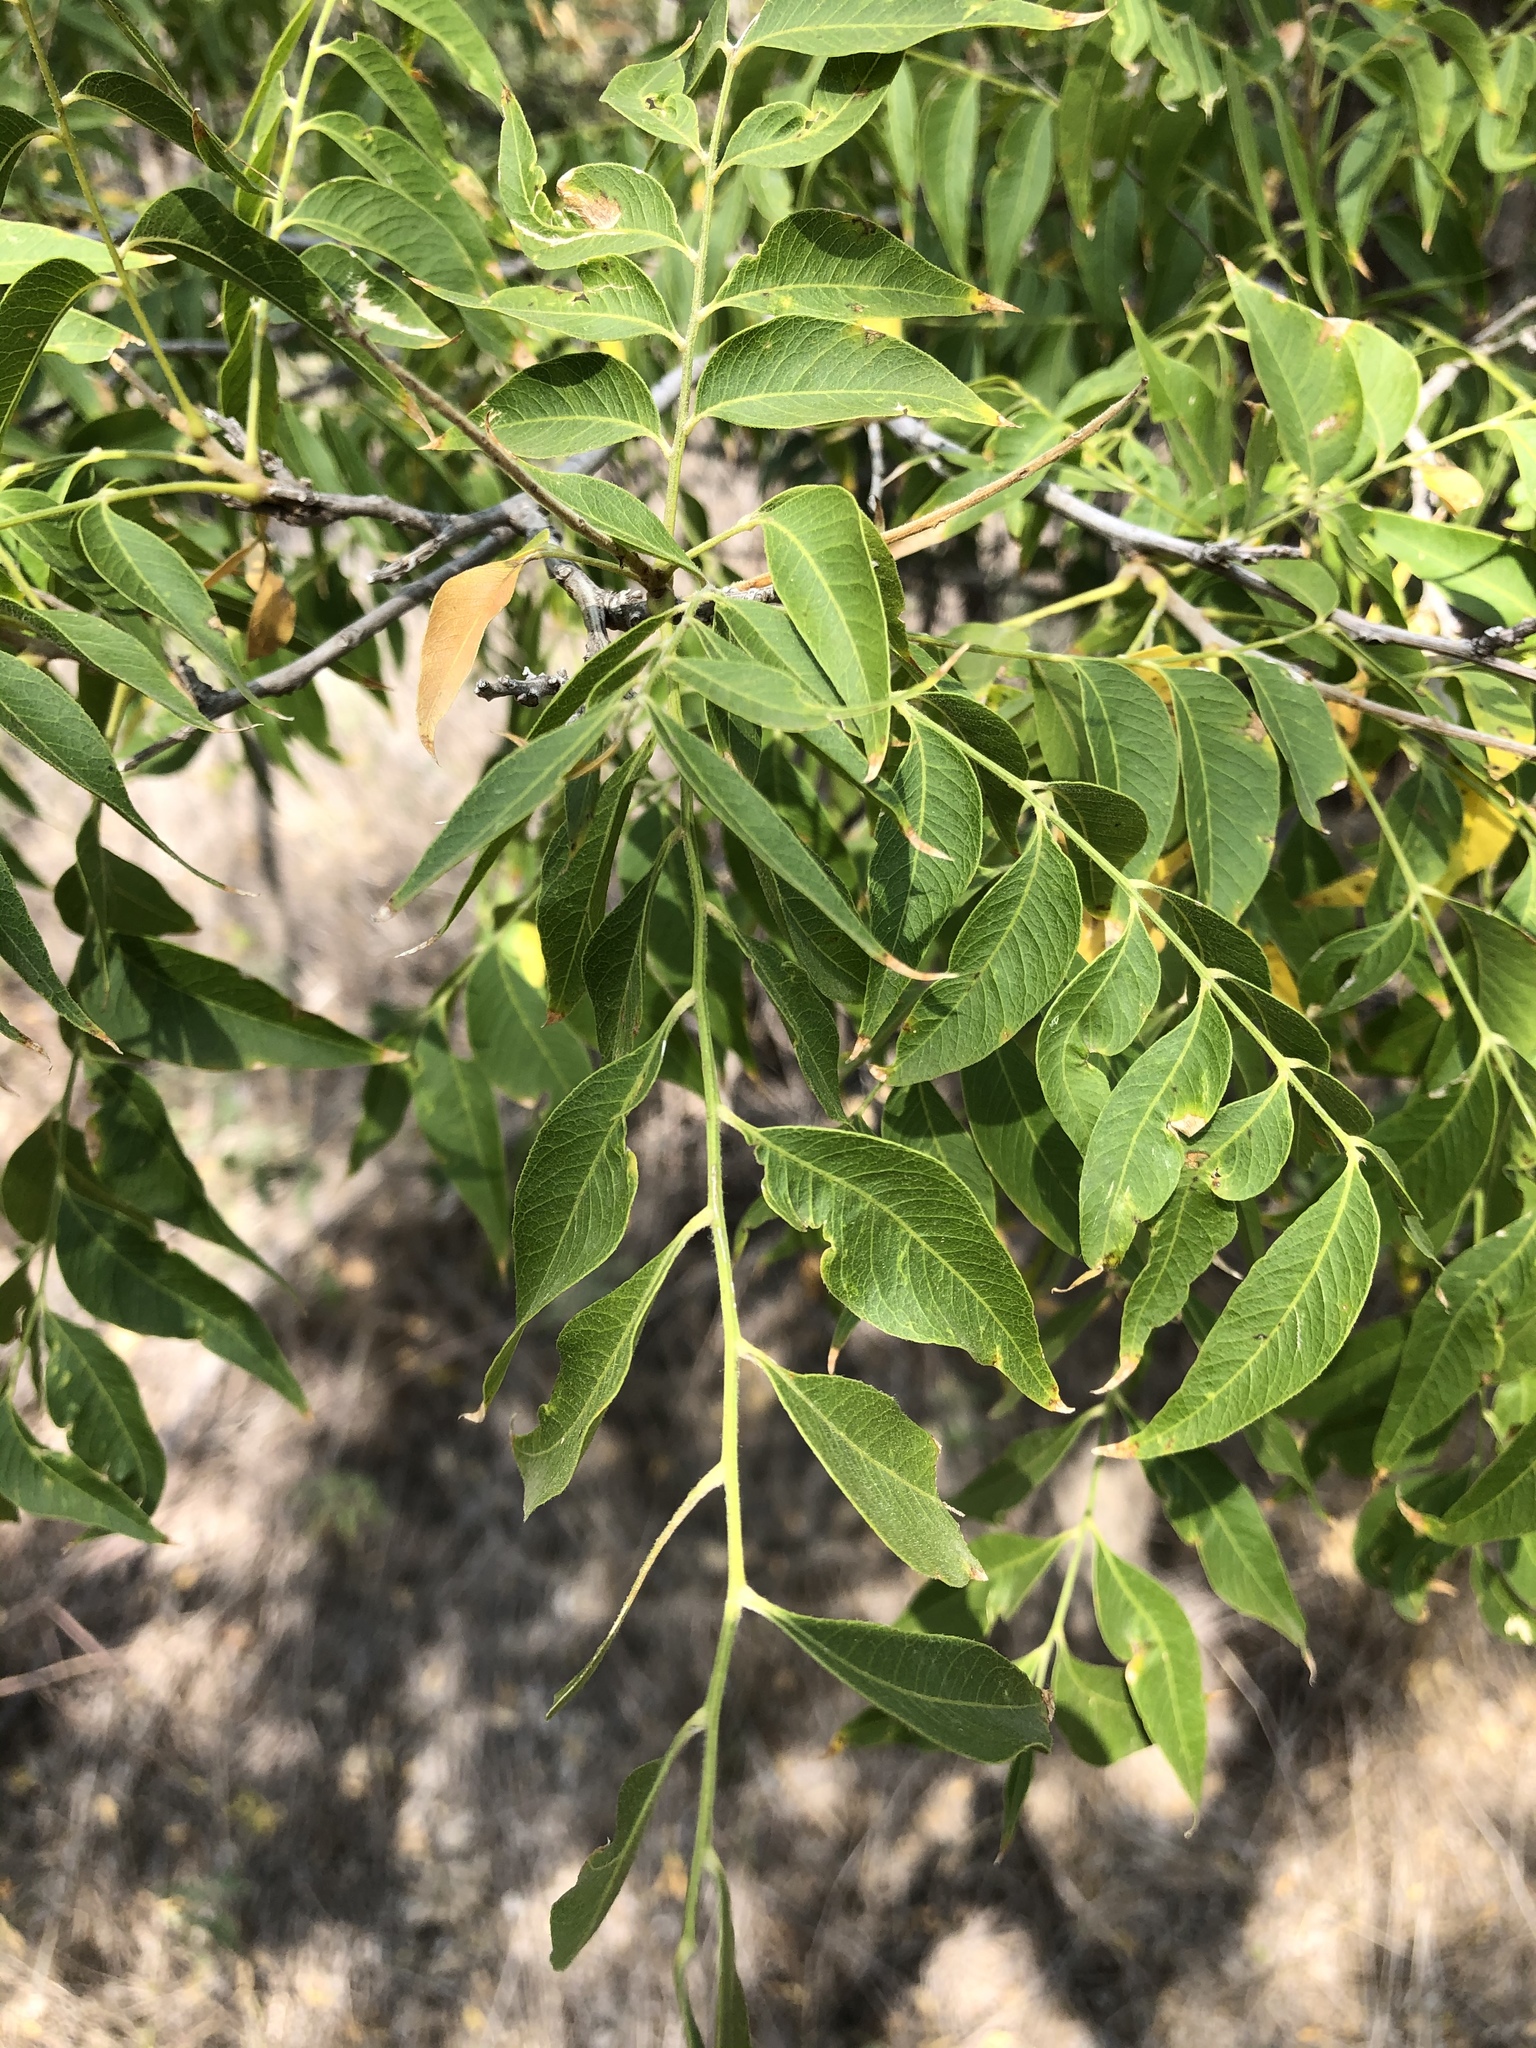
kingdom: Plantae
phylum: Tracheophyta
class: Magnoliopsida
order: Sapindales
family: Sapindaceae
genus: Sapindus
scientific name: Sapindus drummondii
